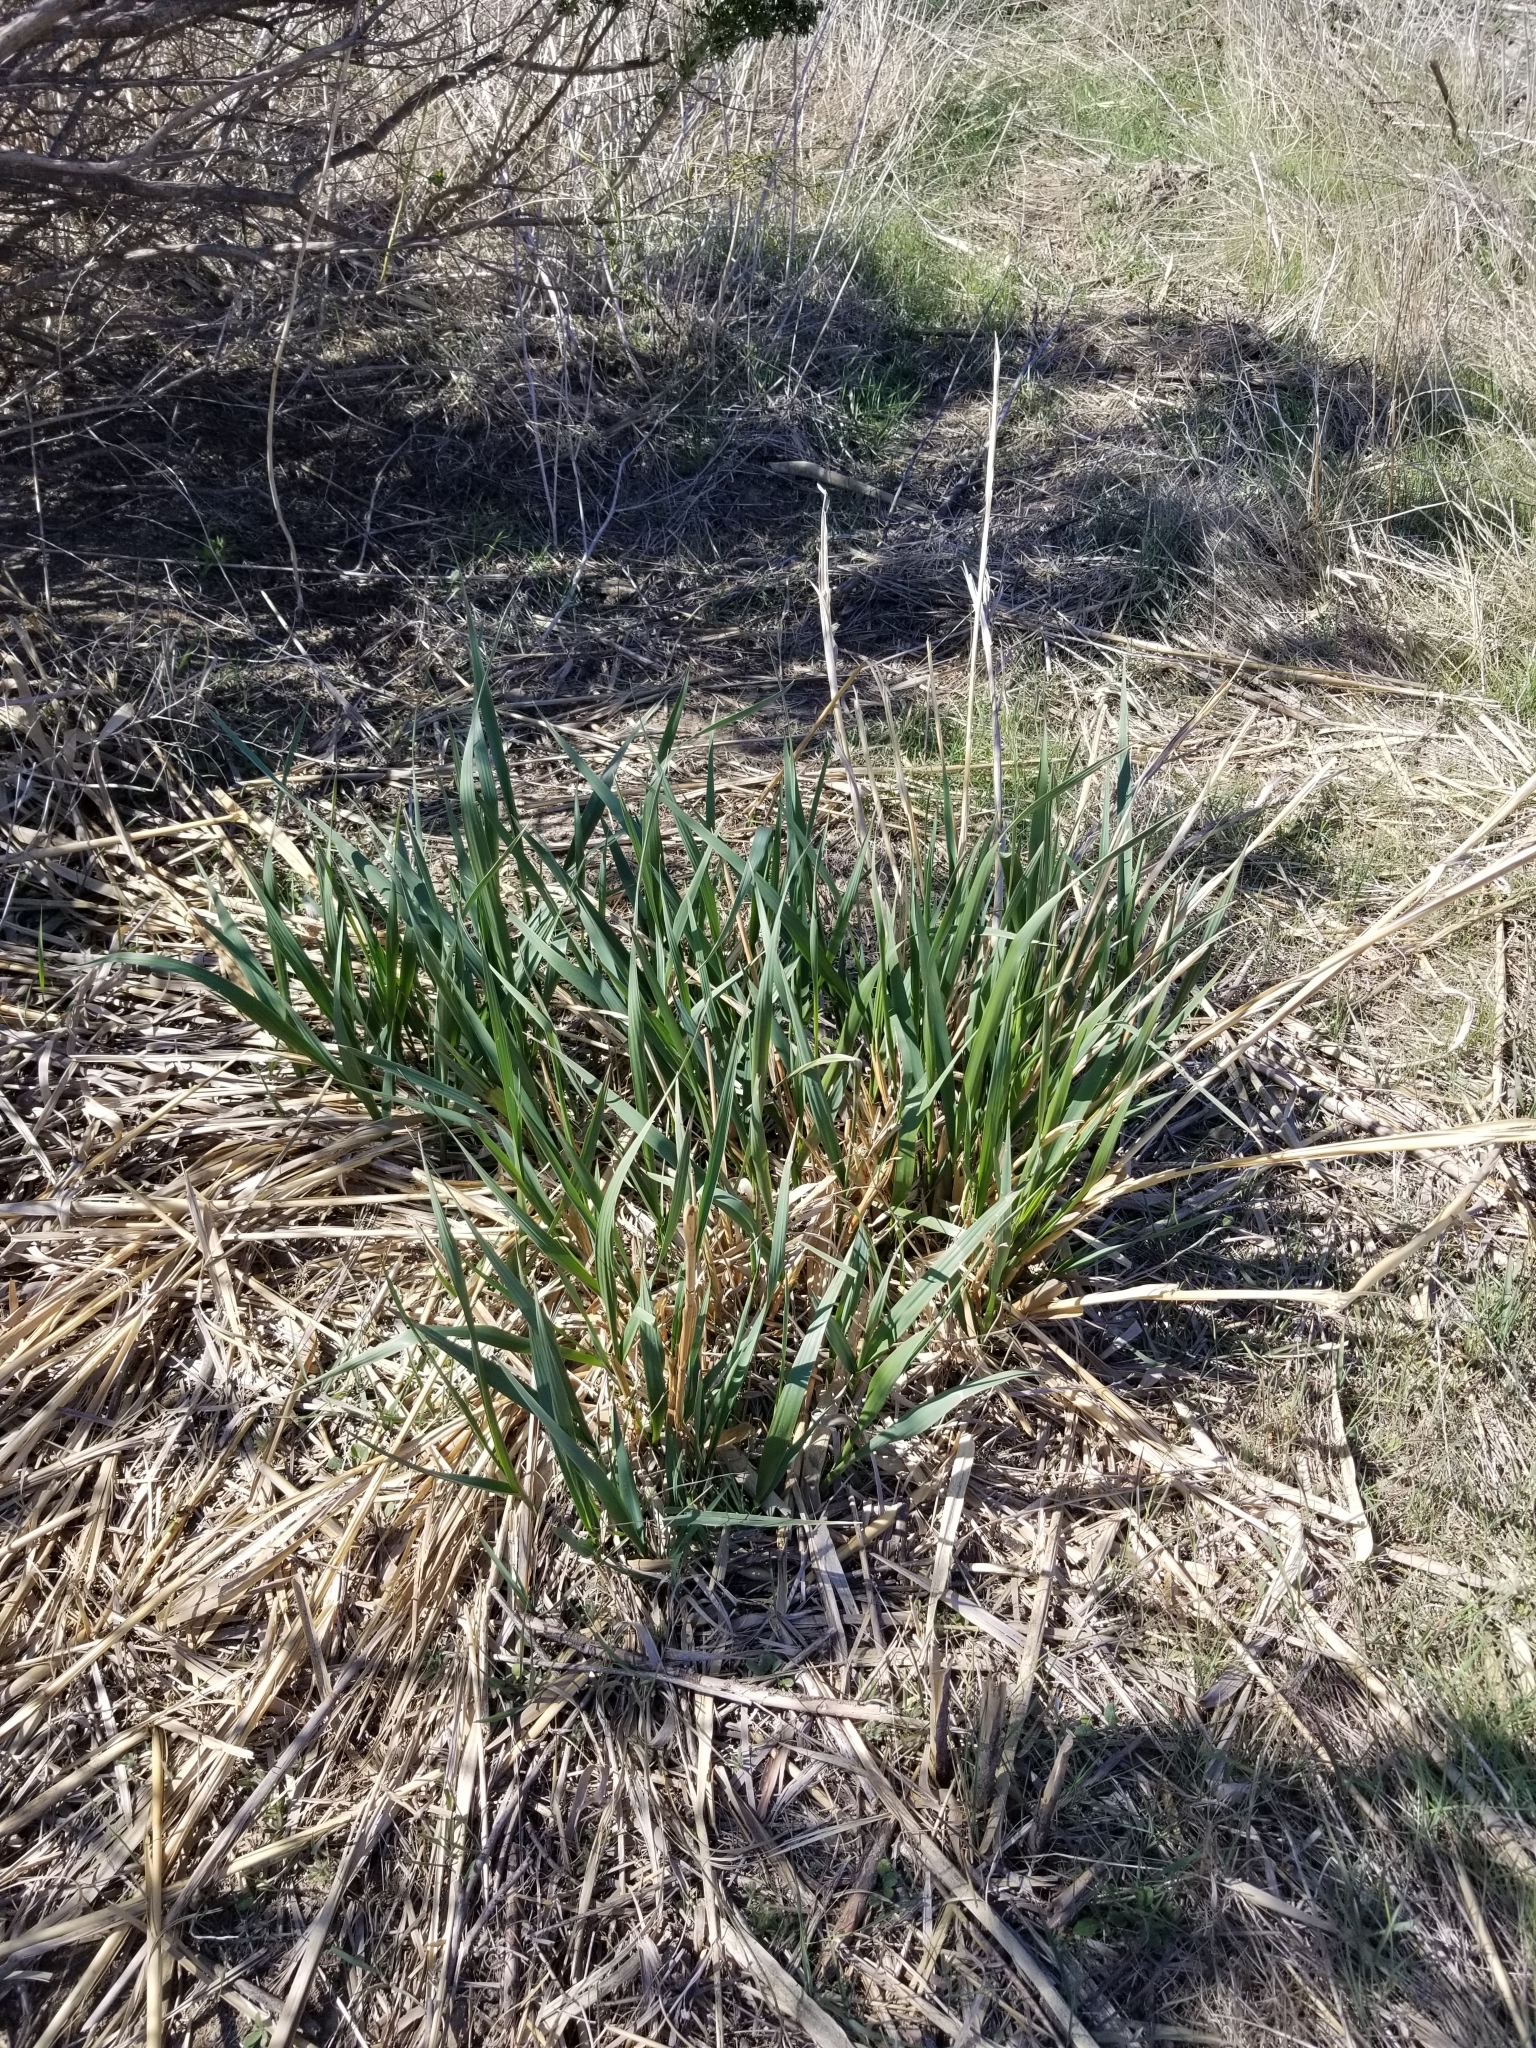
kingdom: Plantae
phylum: Tracheophyta
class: Liliopsida
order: Poales
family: Poaceae
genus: Leymus
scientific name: Leymus condensatus
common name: Giant wild rye
